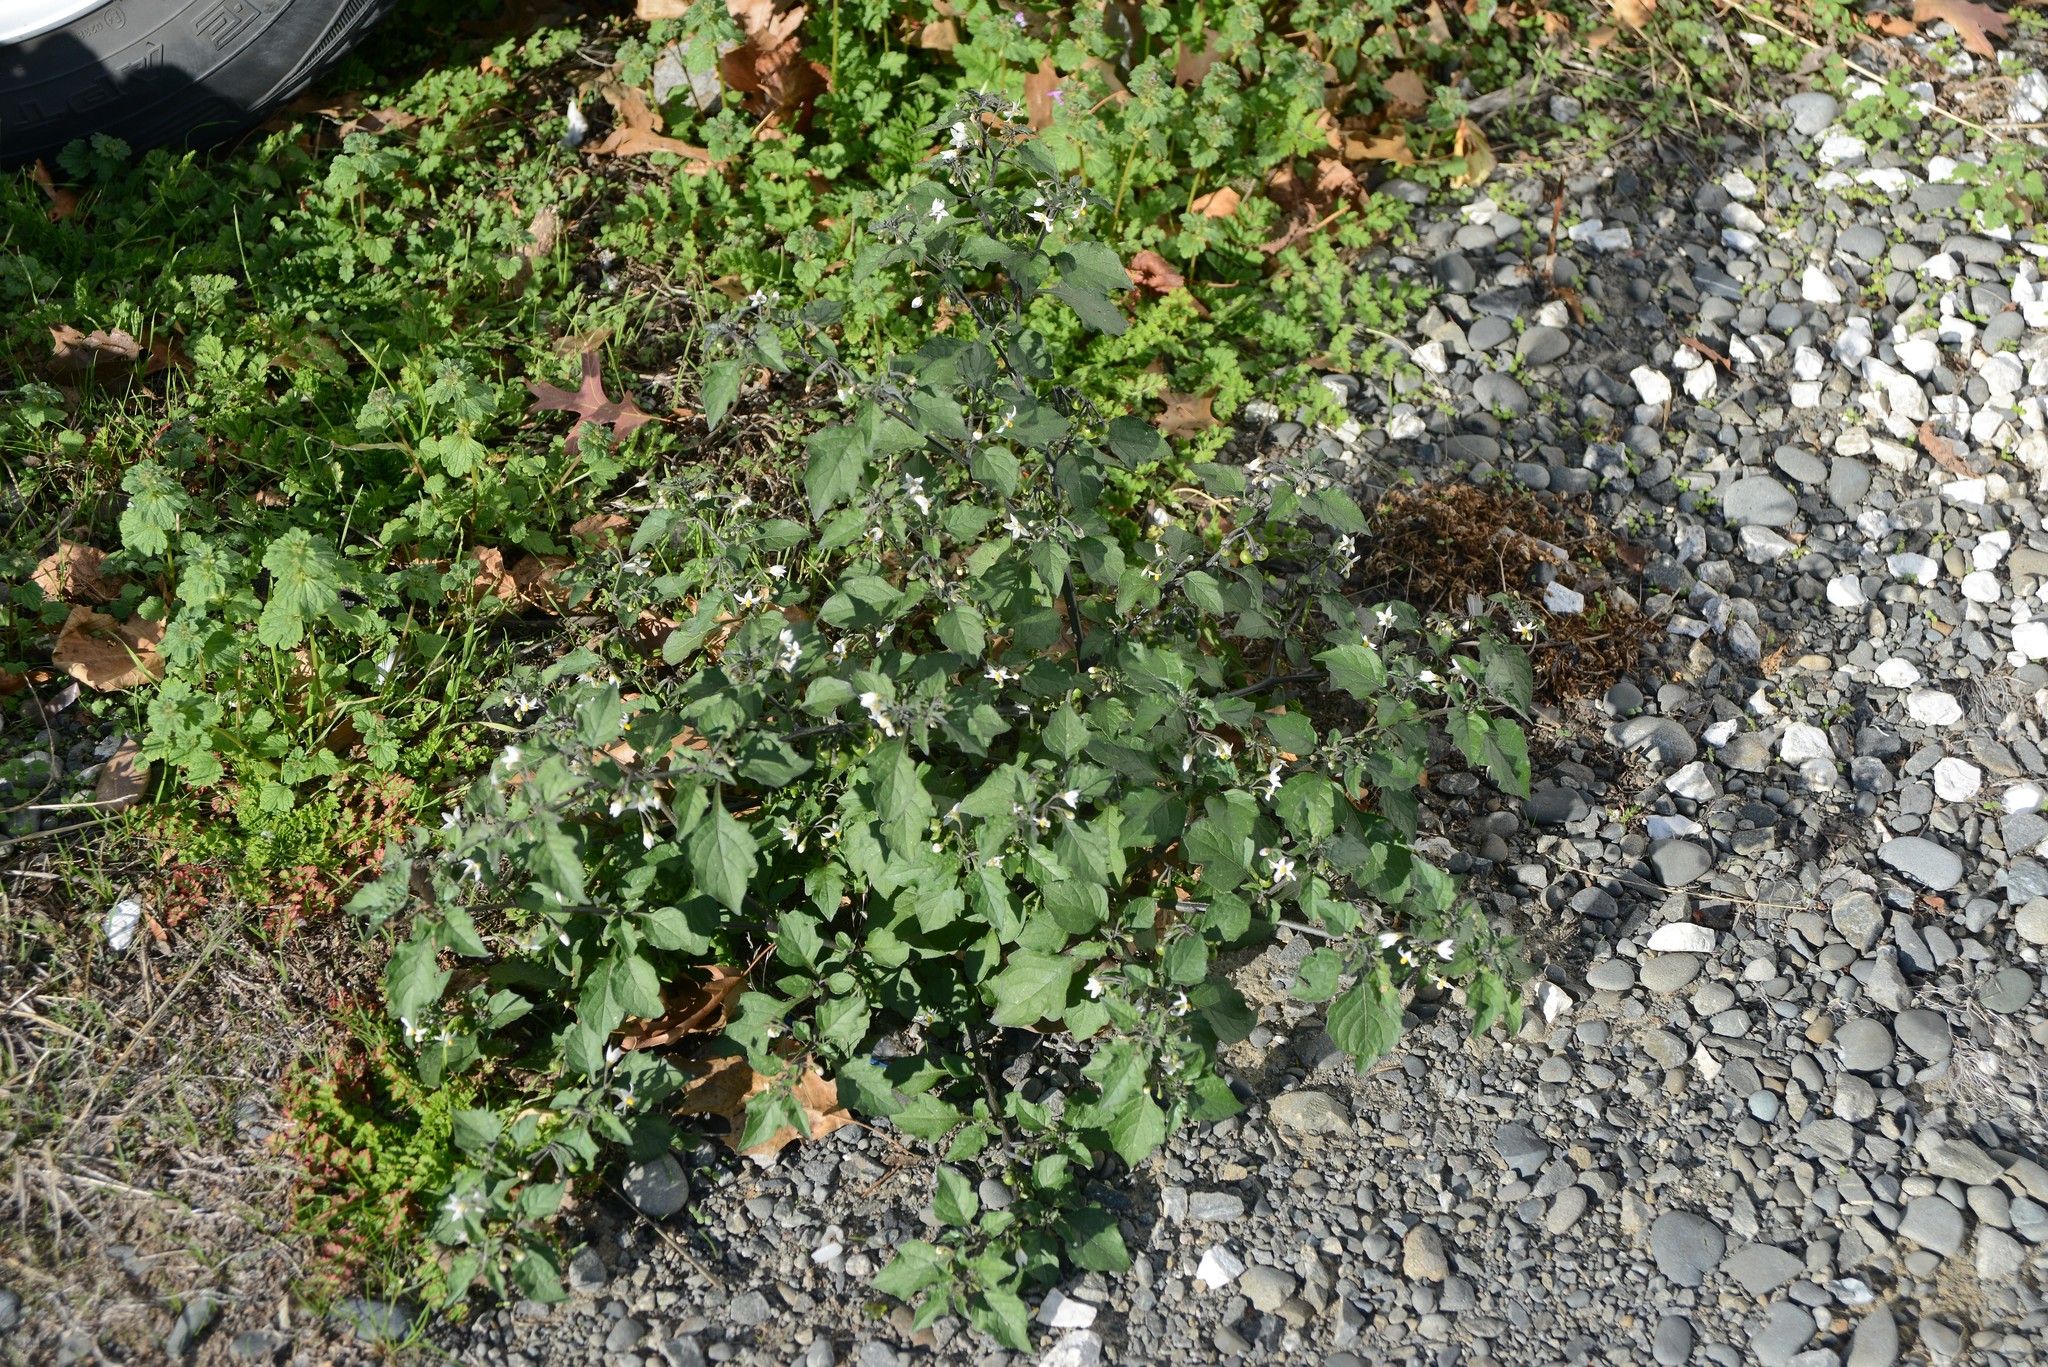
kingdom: Plantae
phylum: Tracheophyta
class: Magnoliopsida
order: Solanales
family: Solanaceae
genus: Solanum
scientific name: Solanum nigrum
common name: Black nightshade
